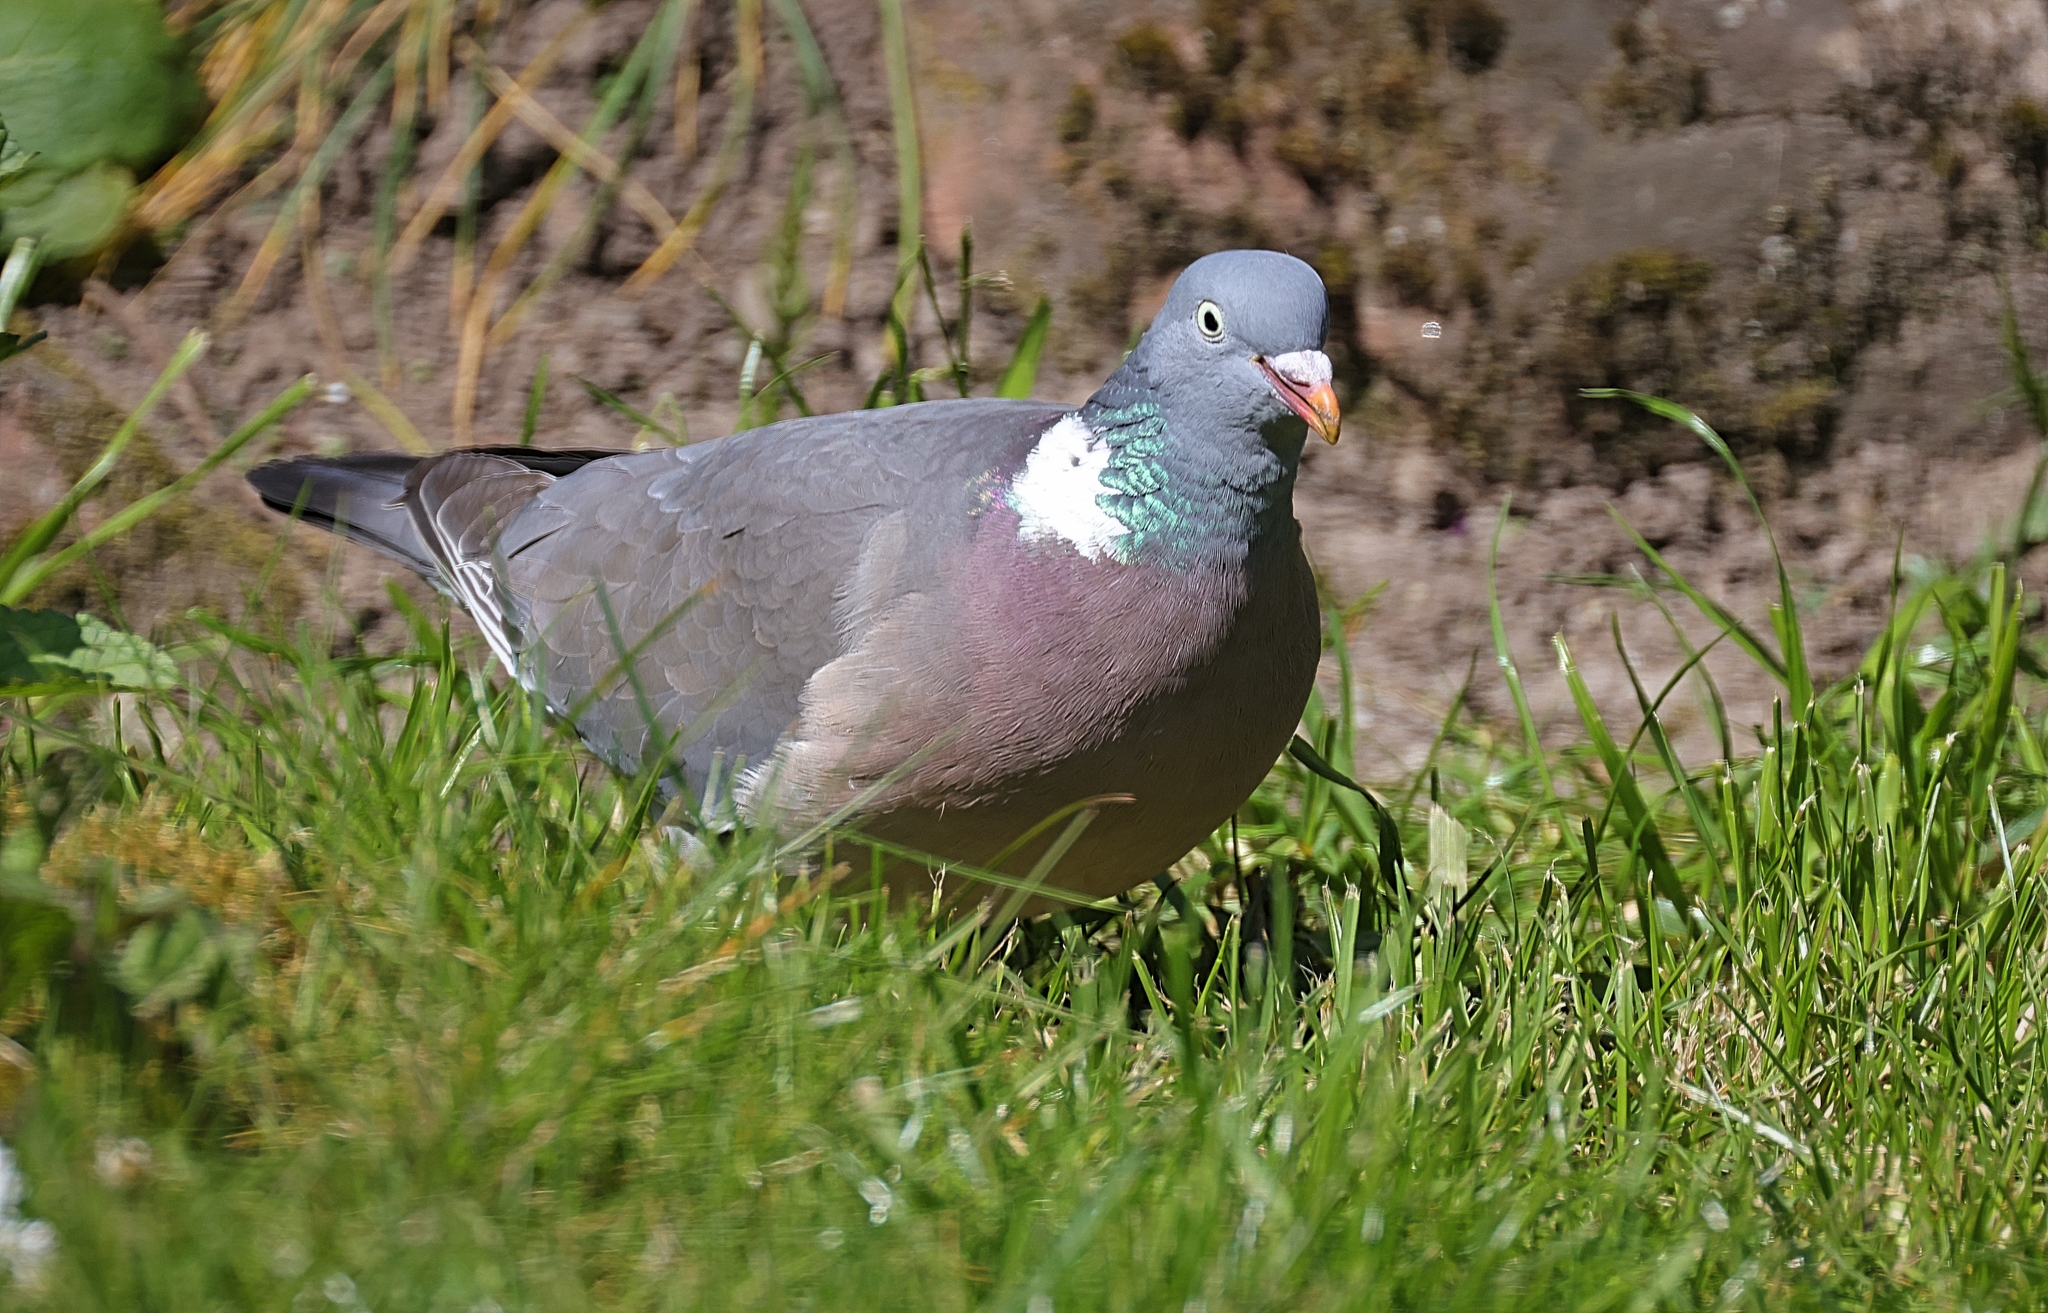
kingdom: Animalia
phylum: Chordata
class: Aves
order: Columbiformes
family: Columbidae
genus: Columba
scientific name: Columba palumbus
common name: Common wood pigeon
